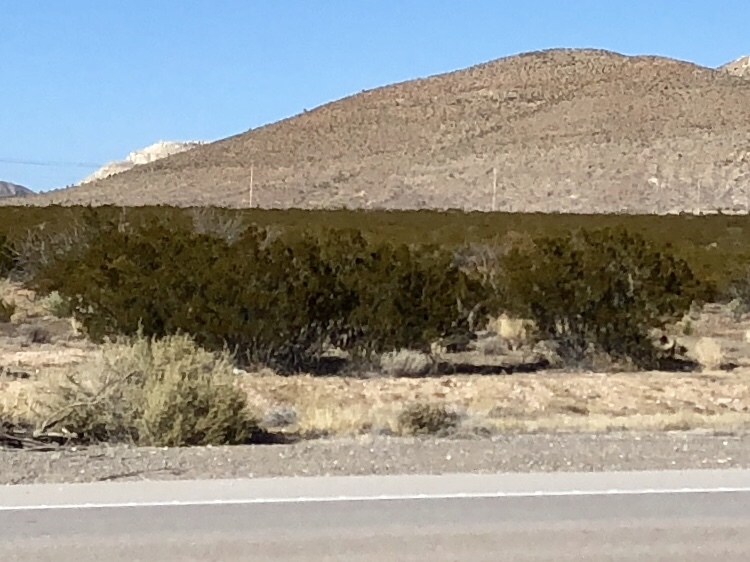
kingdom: Plantae
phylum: Tracheophyta
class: Magnoliopsida
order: Zygophyllales
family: Zygophyllaceae
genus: Larrea
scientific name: Larrea tridentata
